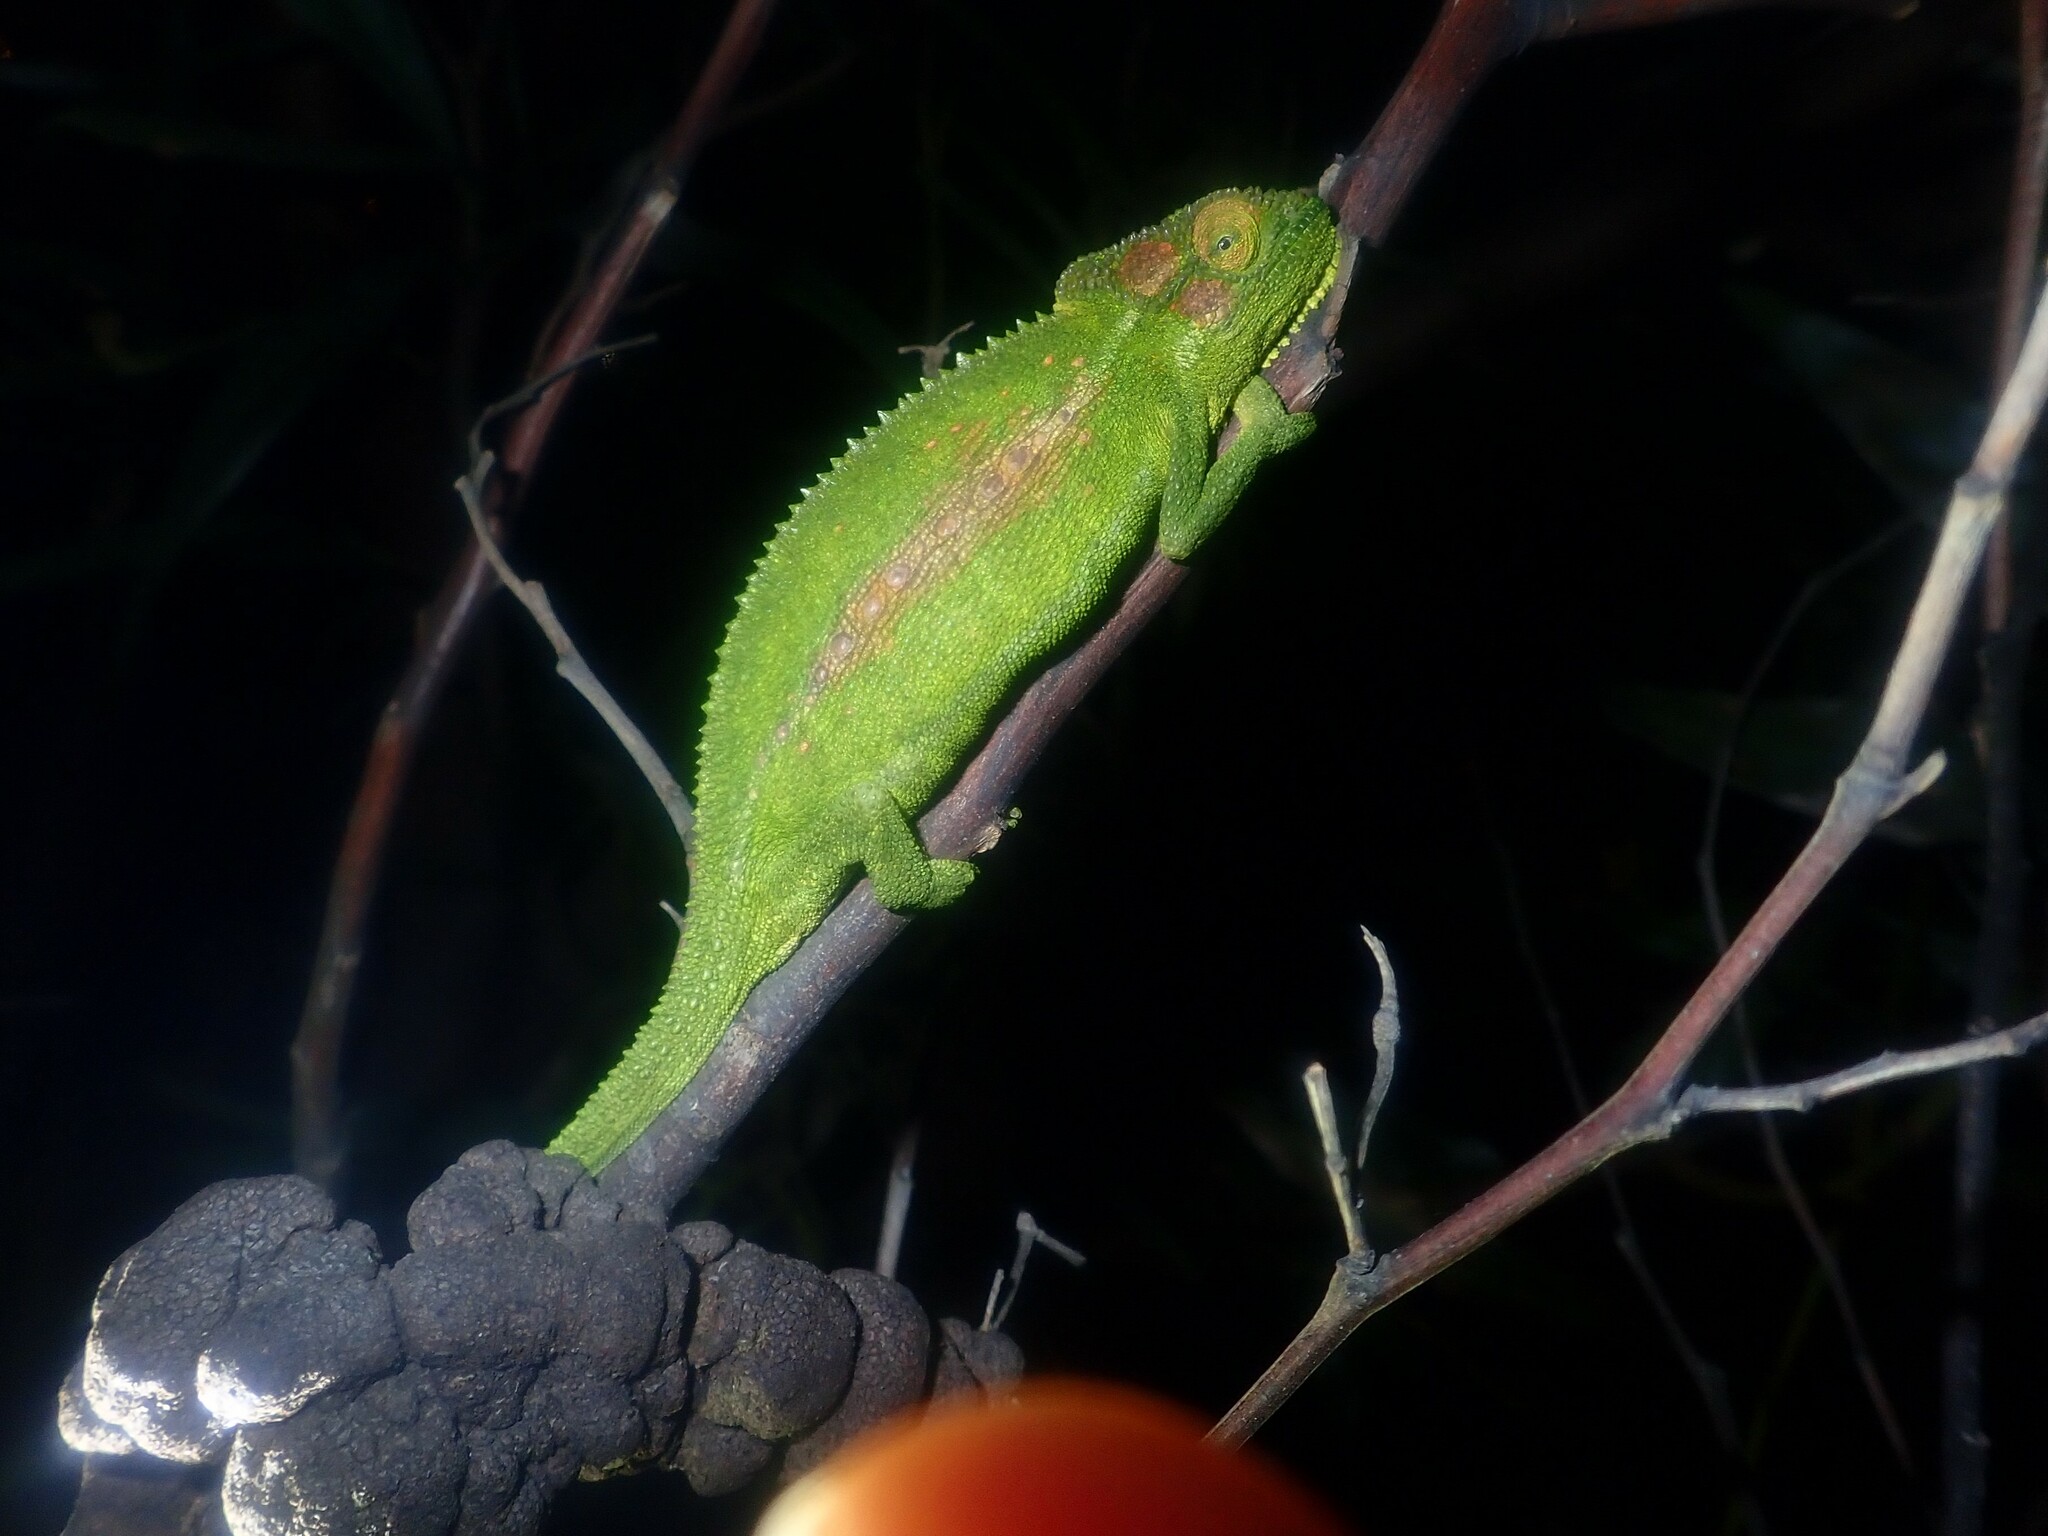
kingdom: Animalia
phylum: Chordata
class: Squamata
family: Chamaeleonidae
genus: Bradypodion
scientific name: Bradypodion pumilum
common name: Cape dwarf chameleon
